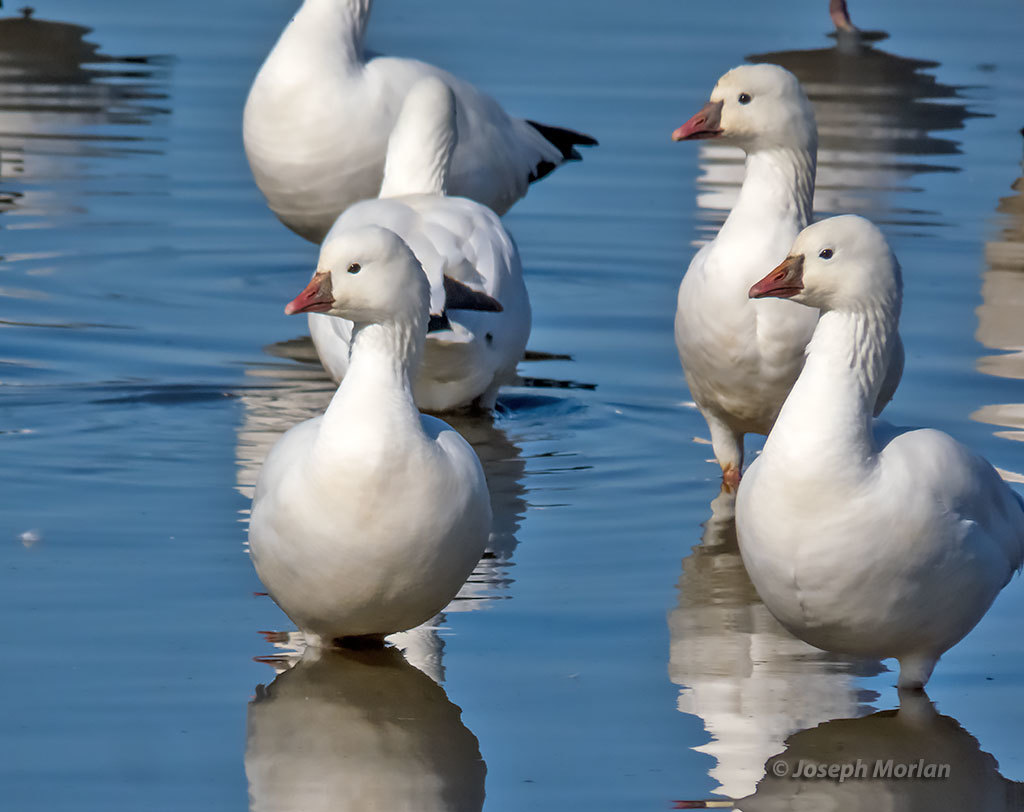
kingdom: Animalia
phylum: Chordata
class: Aves
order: Anseriformes
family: Anatidae
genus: Anser
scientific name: Anser rossii
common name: Ross's goose
